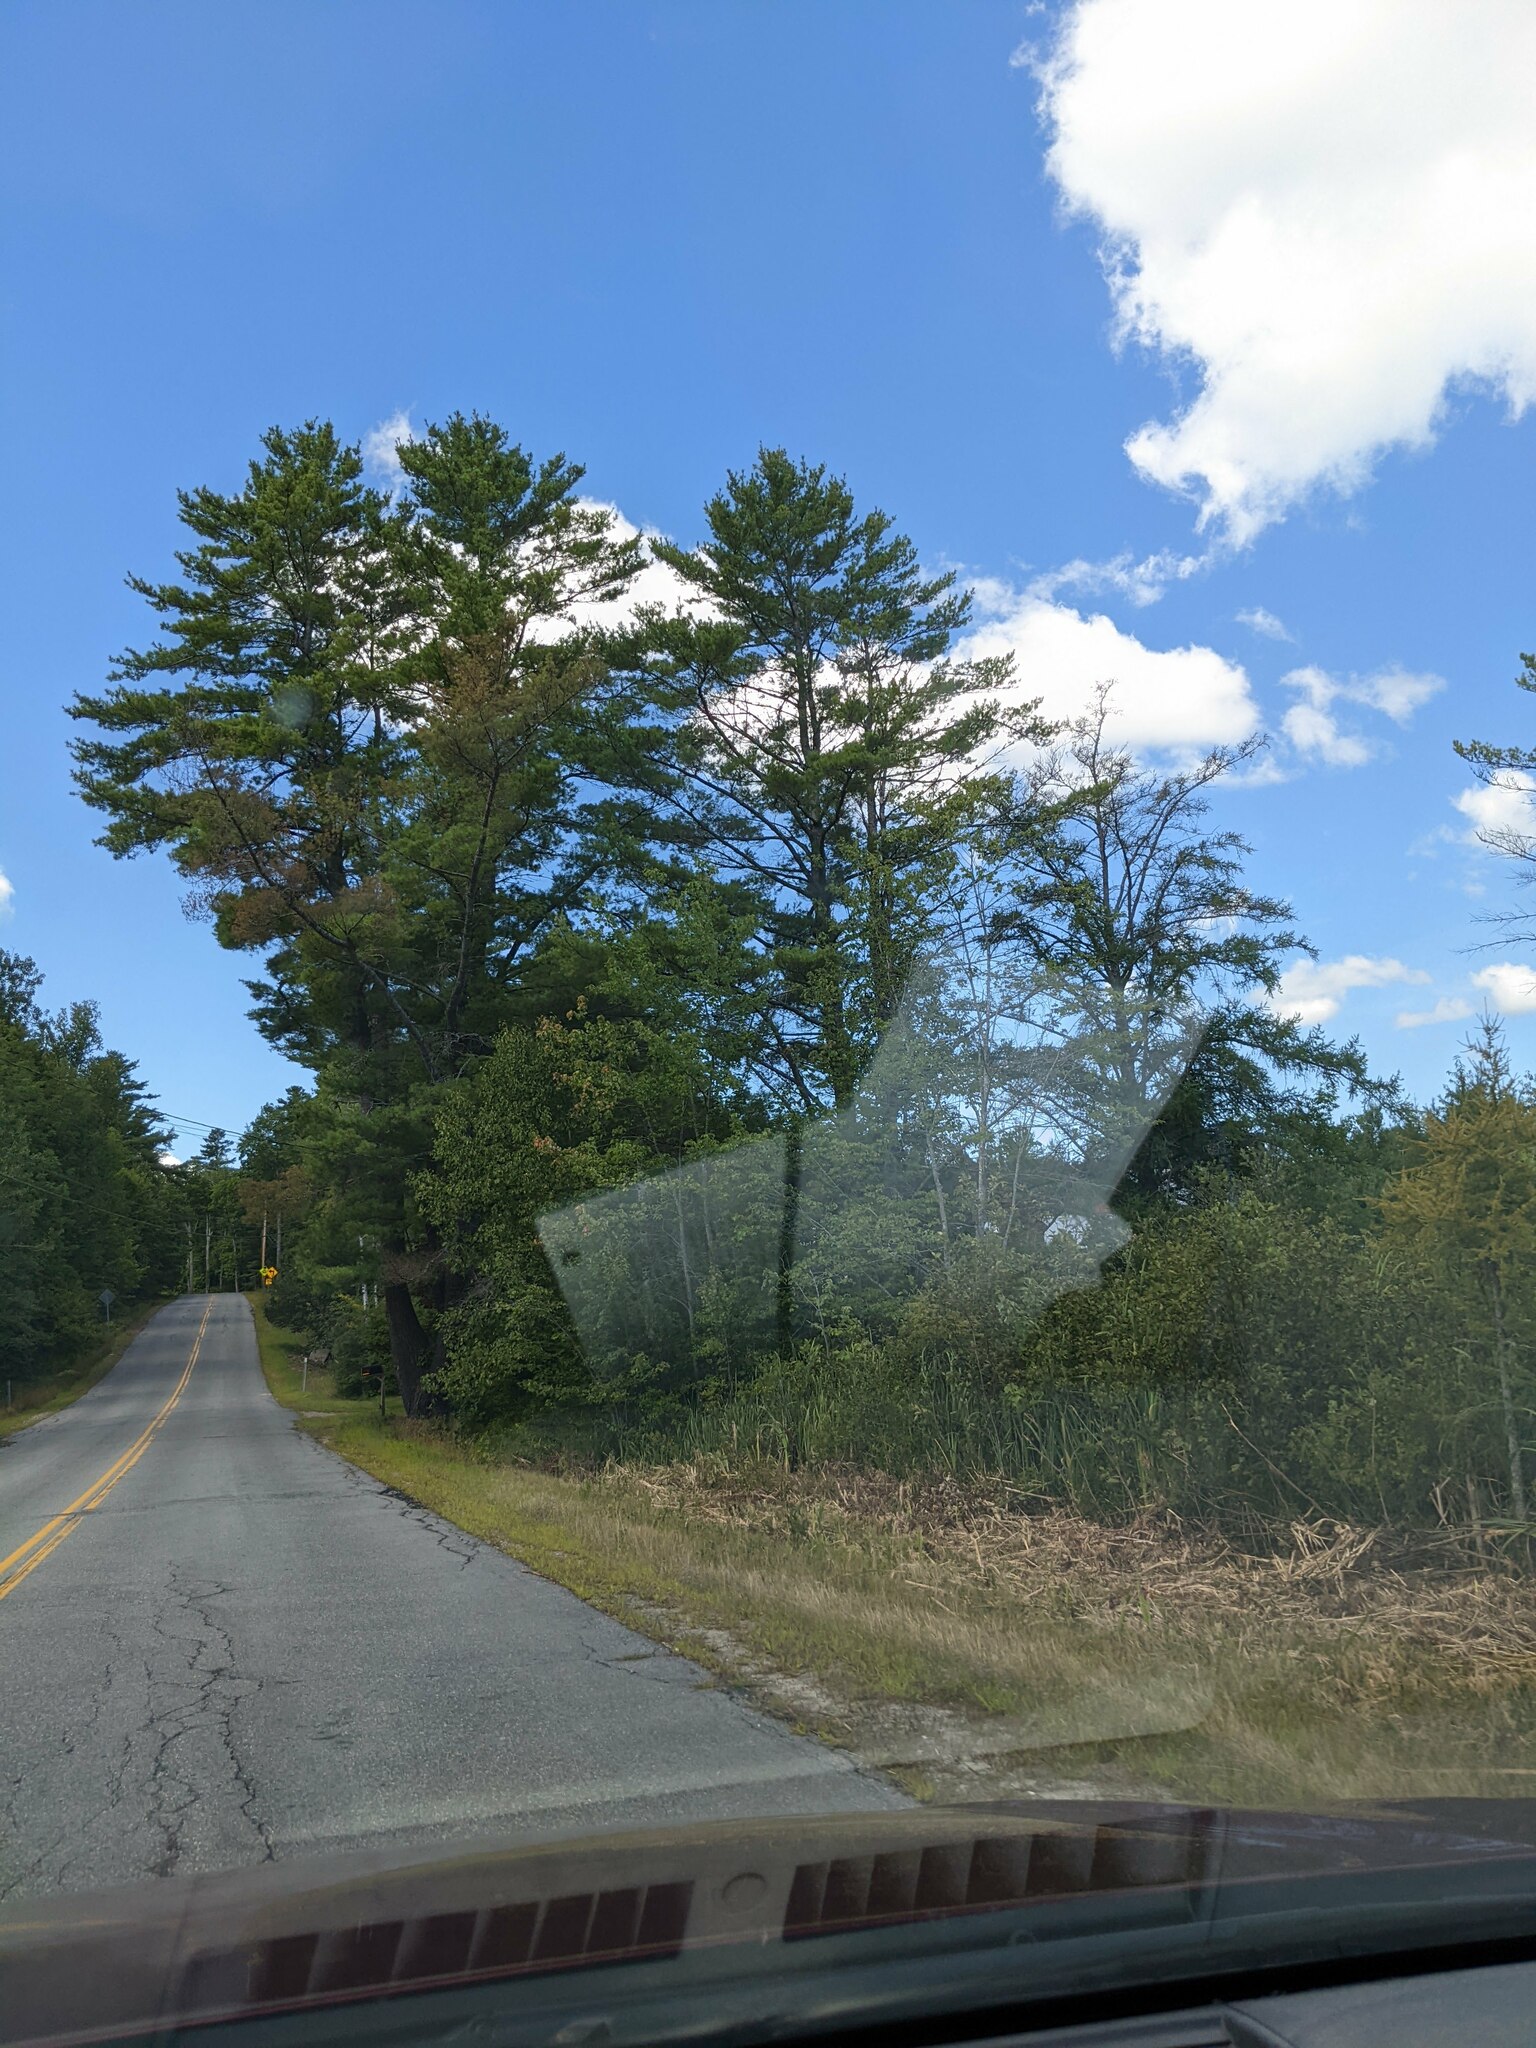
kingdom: Plantae
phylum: Tracheophyta
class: Pinopsida
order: Pinales
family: Pinaceae
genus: Pinus
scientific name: Pinus strobus
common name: Weymouth pine
